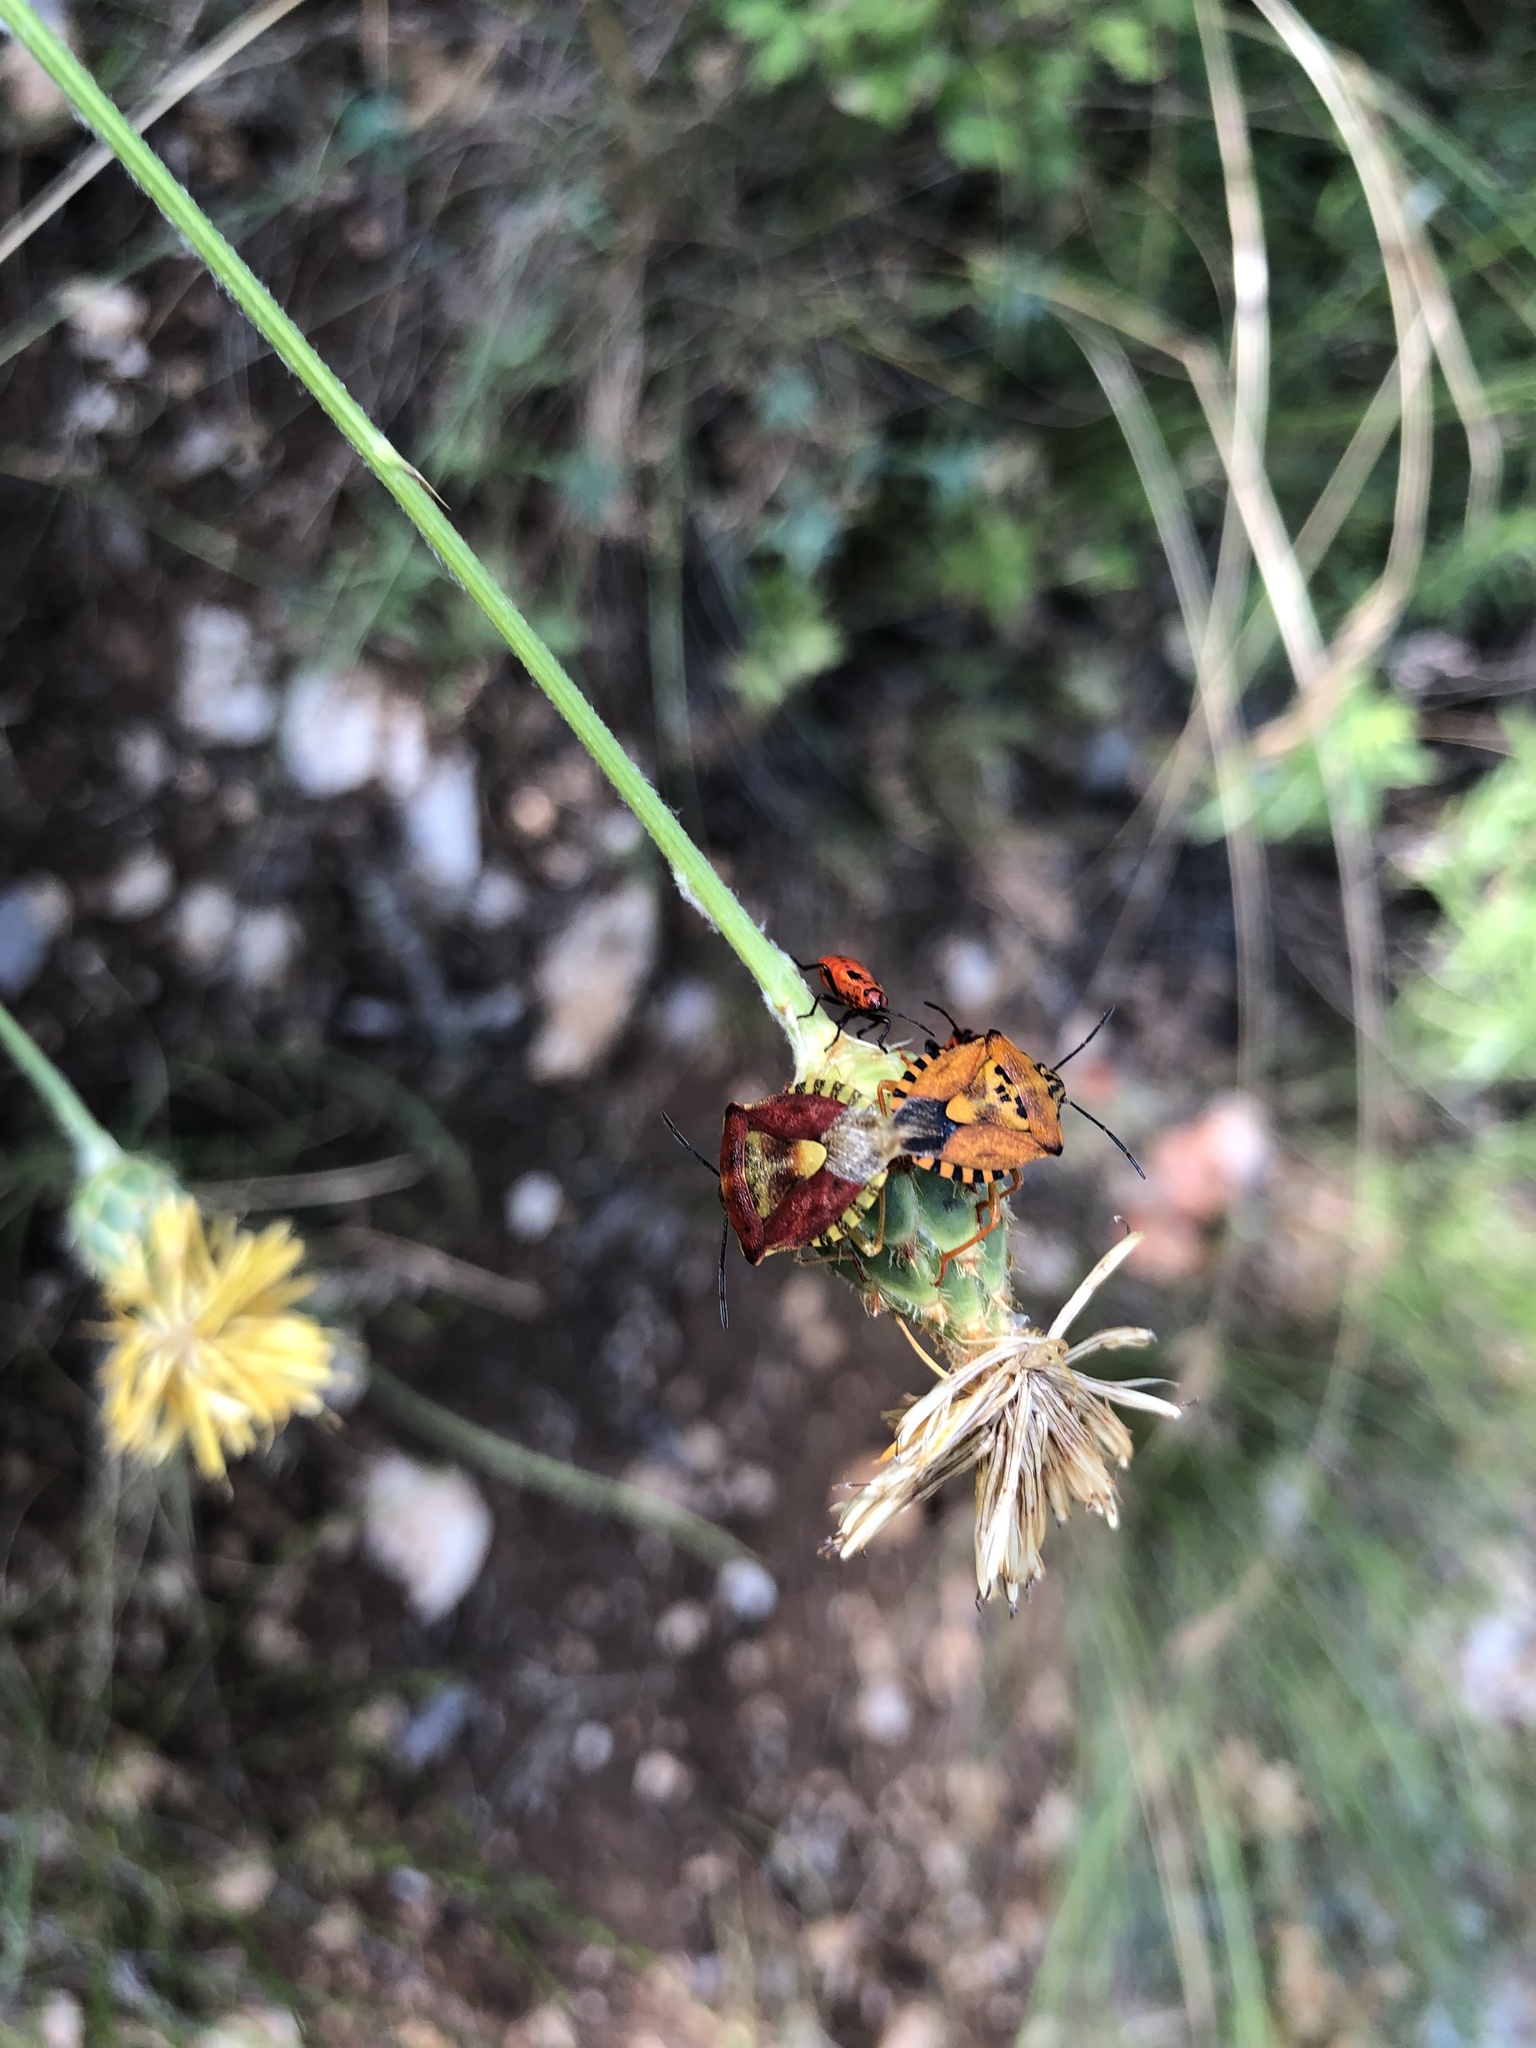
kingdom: Animalia
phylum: Arthropoda
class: Insecta
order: Hemiptera
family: Pentatomidae
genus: Carpocoris
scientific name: Carpocoris mediterraneus
